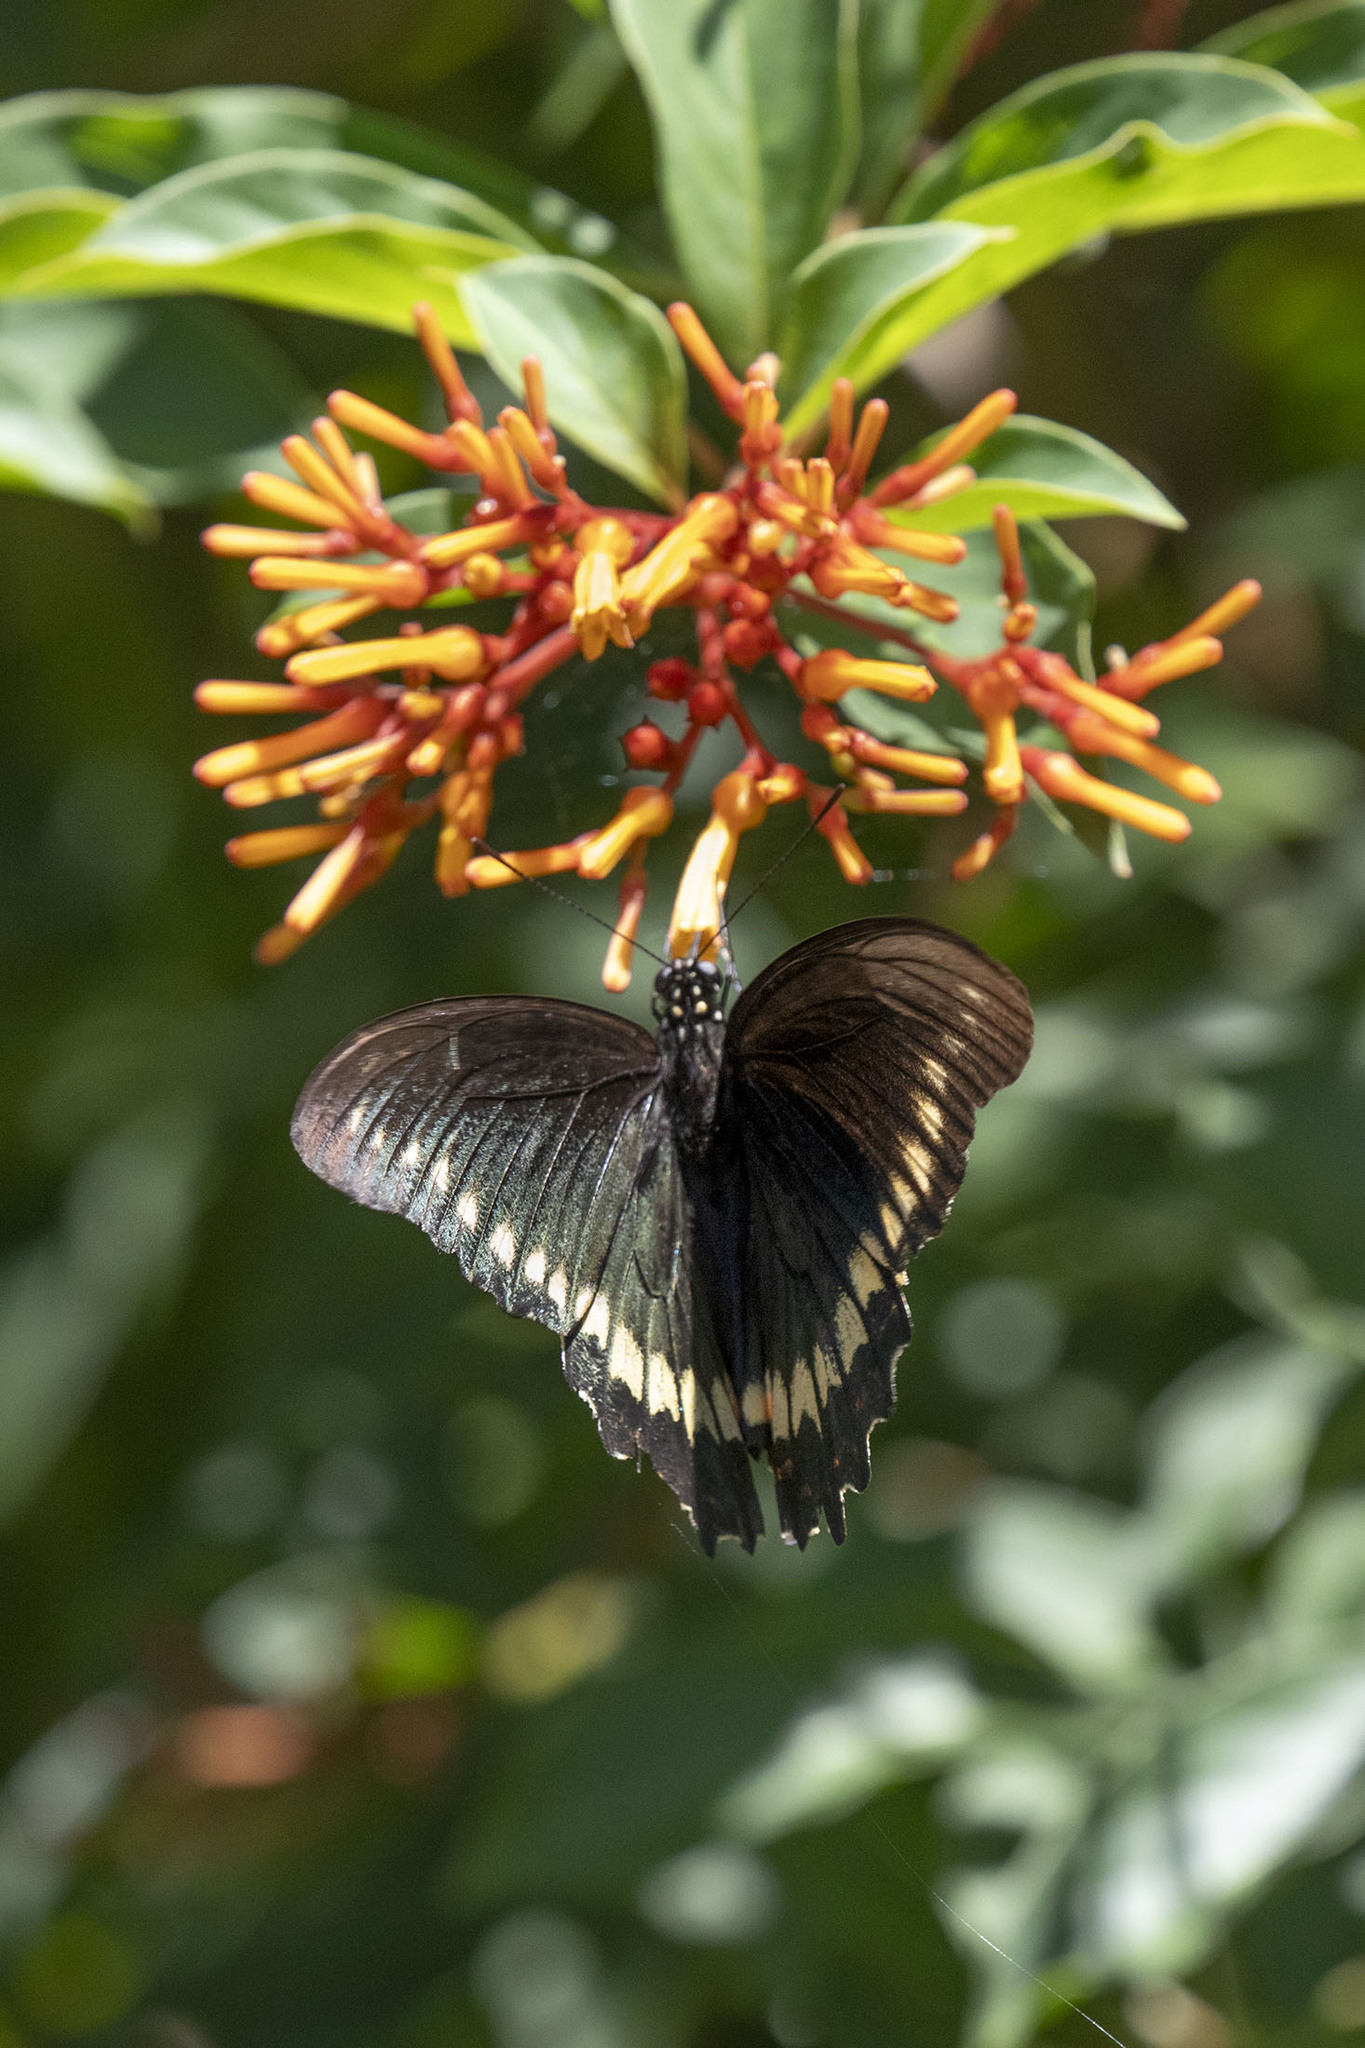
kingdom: Animalia
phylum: Arthropoda
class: Insecta
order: Lepidoptera
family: Papilionidae
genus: Battus
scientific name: Battus polydamas
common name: Polydamas swallowtail
